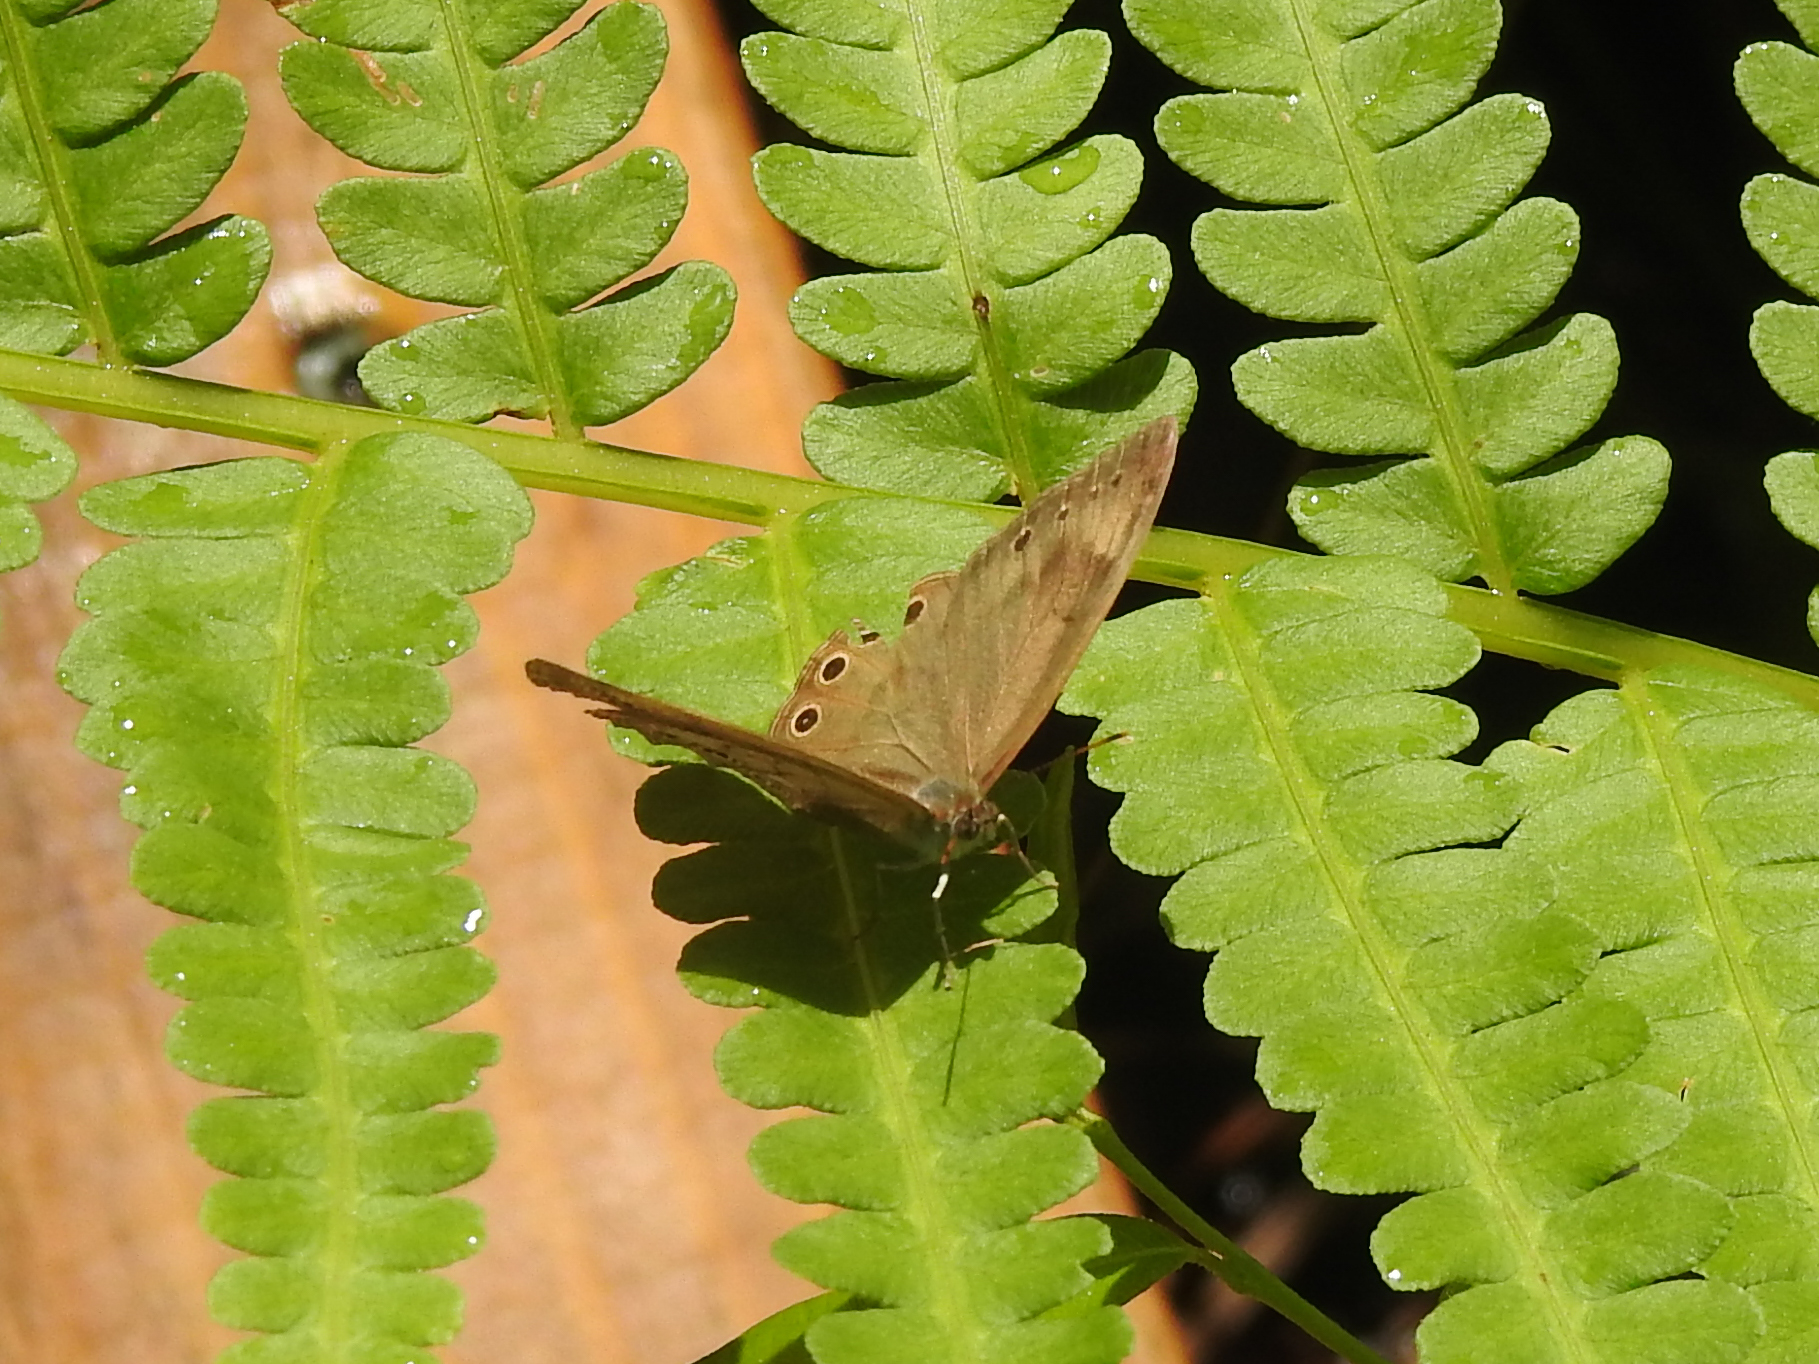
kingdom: Animalia
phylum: Arthropoda
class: Insecta
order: Lepidoptera
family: Nymphalidae
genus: Lethe
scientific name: Lethe eurydice
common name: Eyed brown
